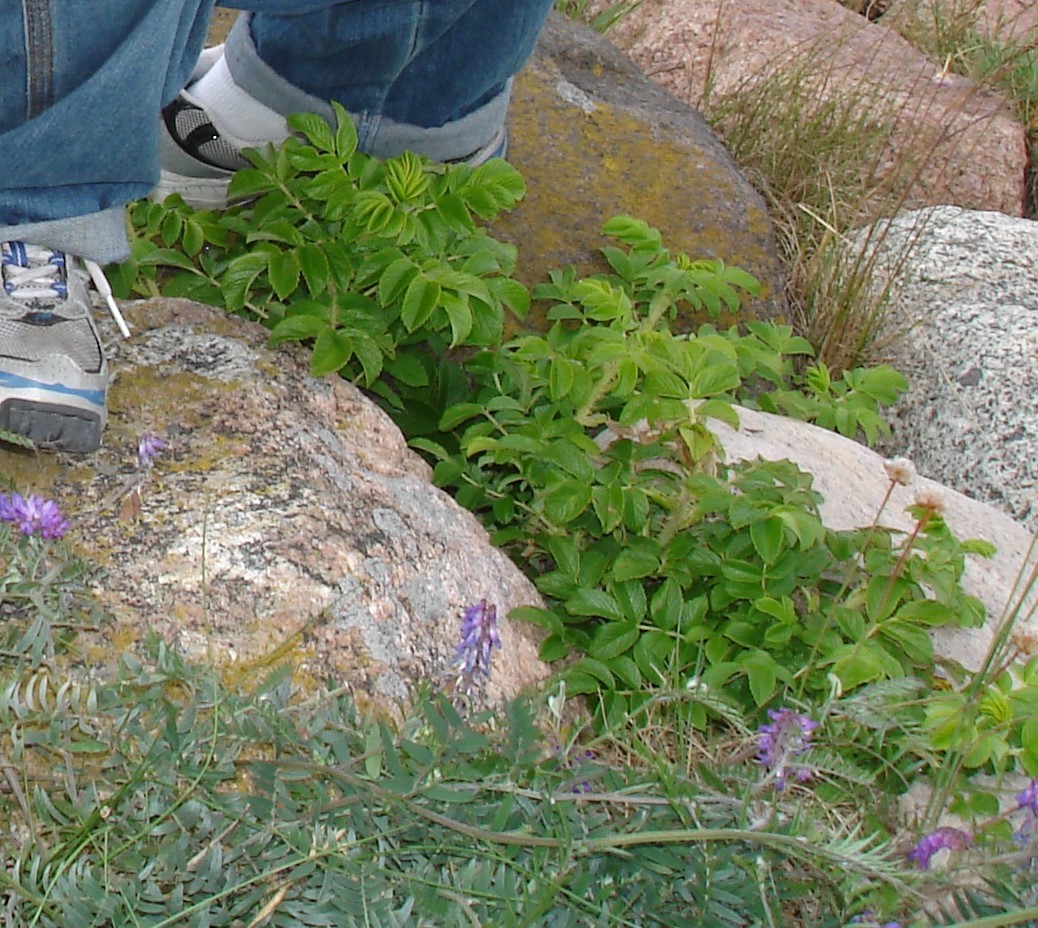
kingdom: Plantae
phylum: Tracheophyta
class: Magnoliopsida
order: Rosales
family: Rosaceae
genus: Rosa
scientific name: Rosa rugosa
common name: Japanese rose
